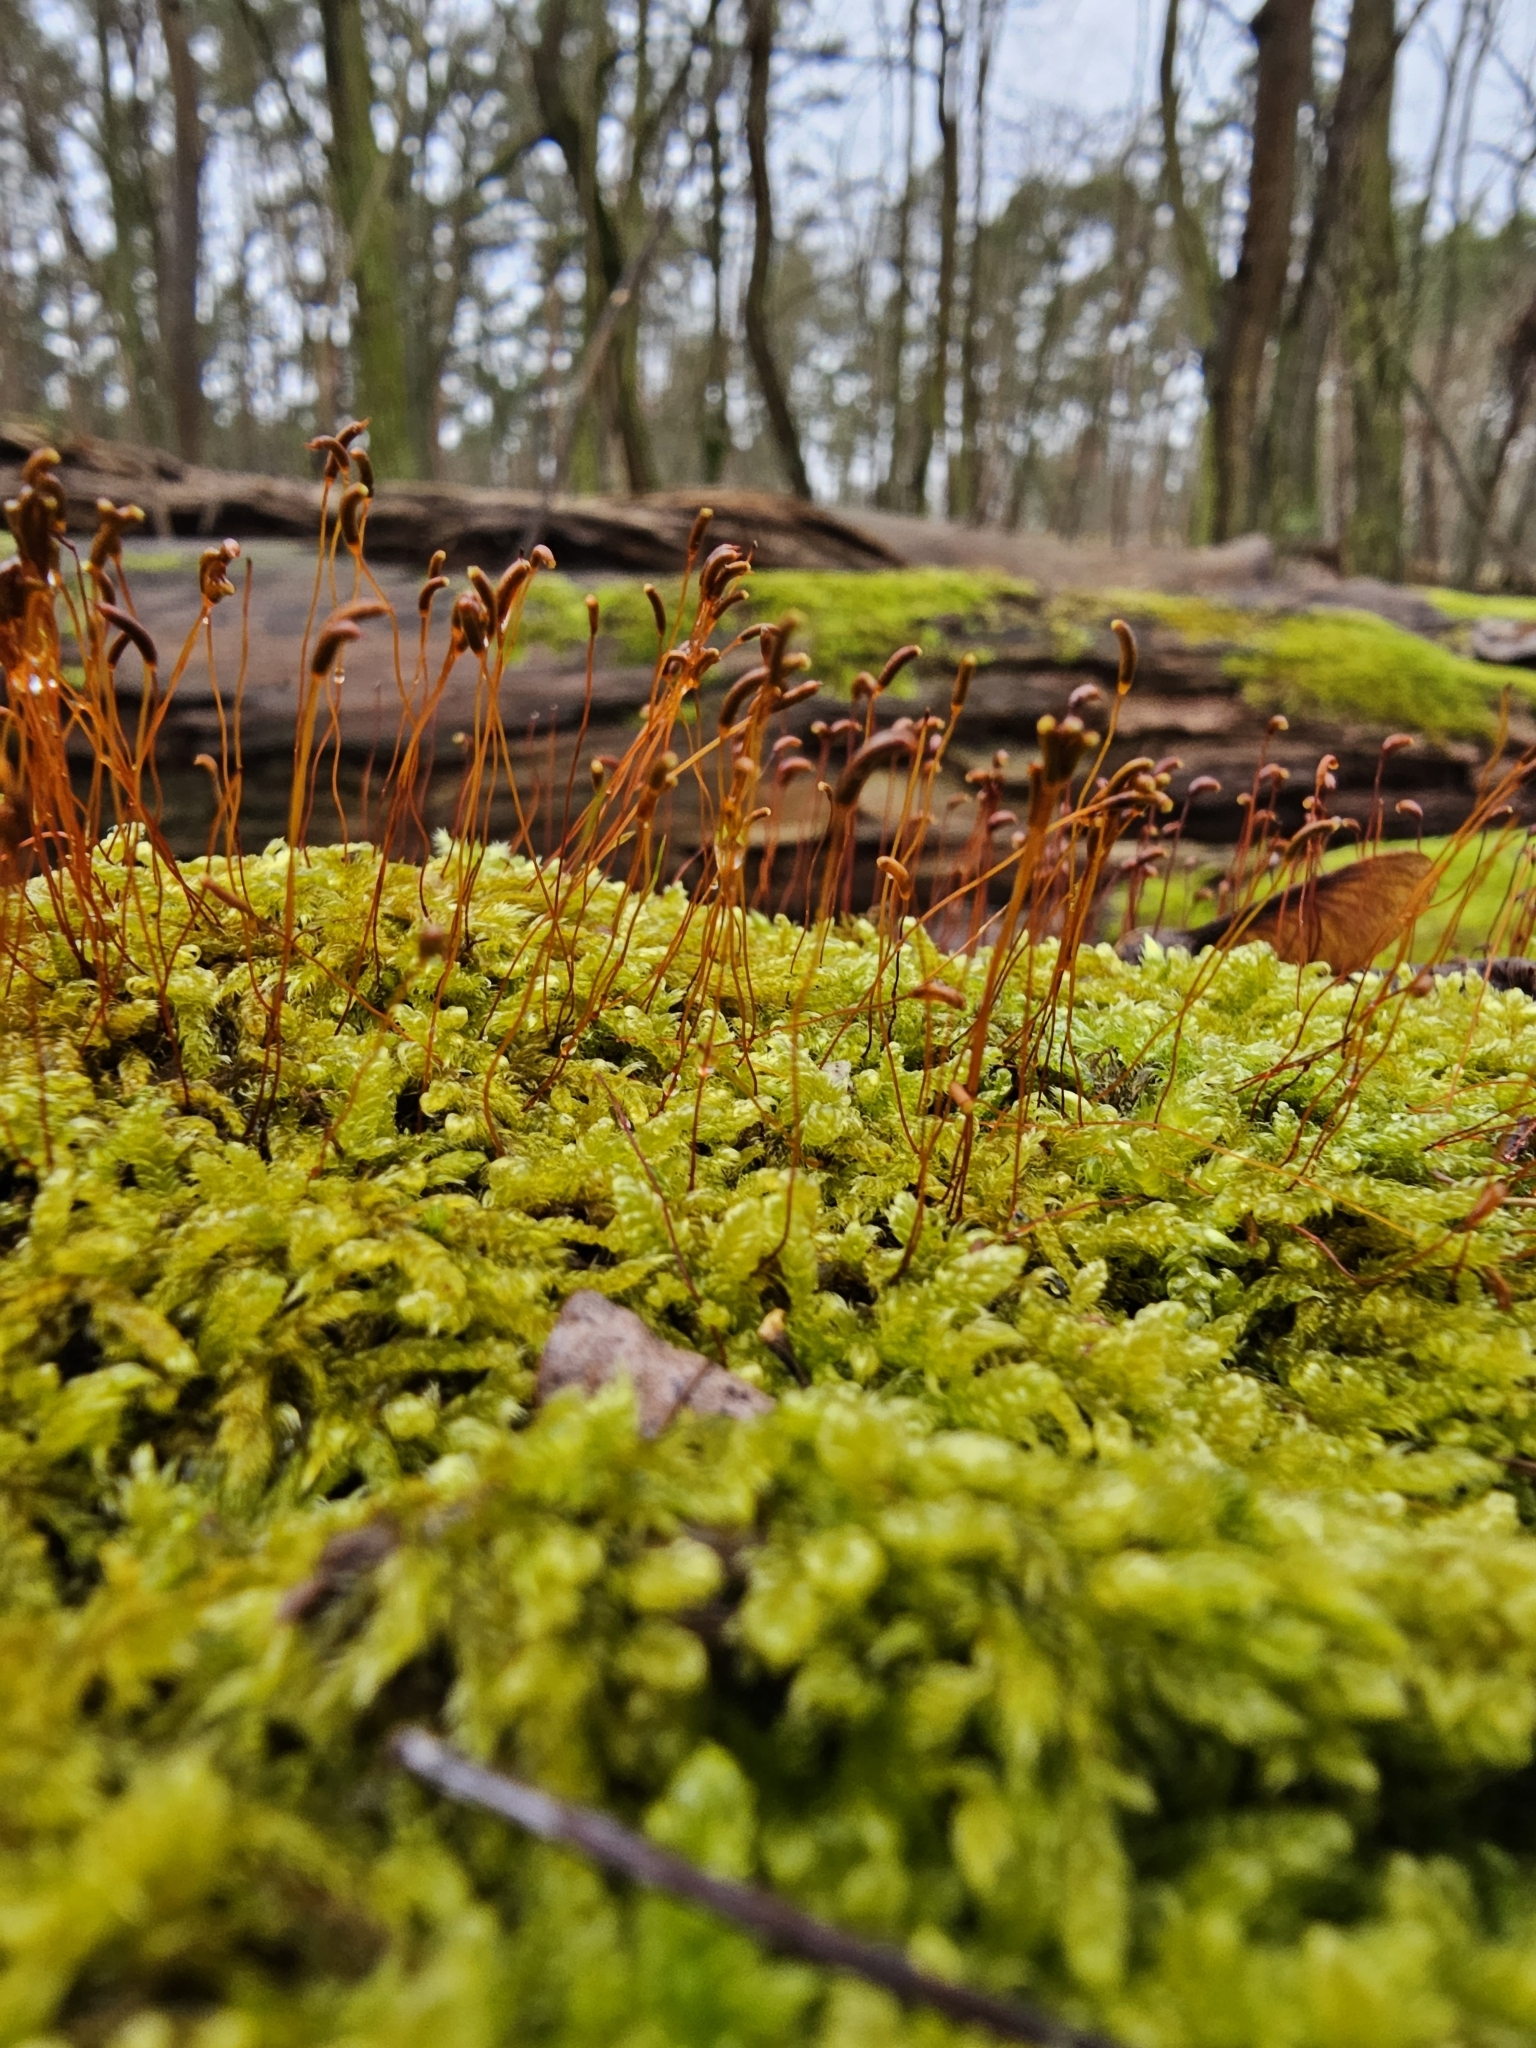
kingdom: Plantae
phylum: Bryophyta
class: Bryopsida
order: Hypnales
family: Hypnaceae
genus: Hypnum
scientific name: Hypnum cupressiforme
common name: Cypress-leaved plait-moss
